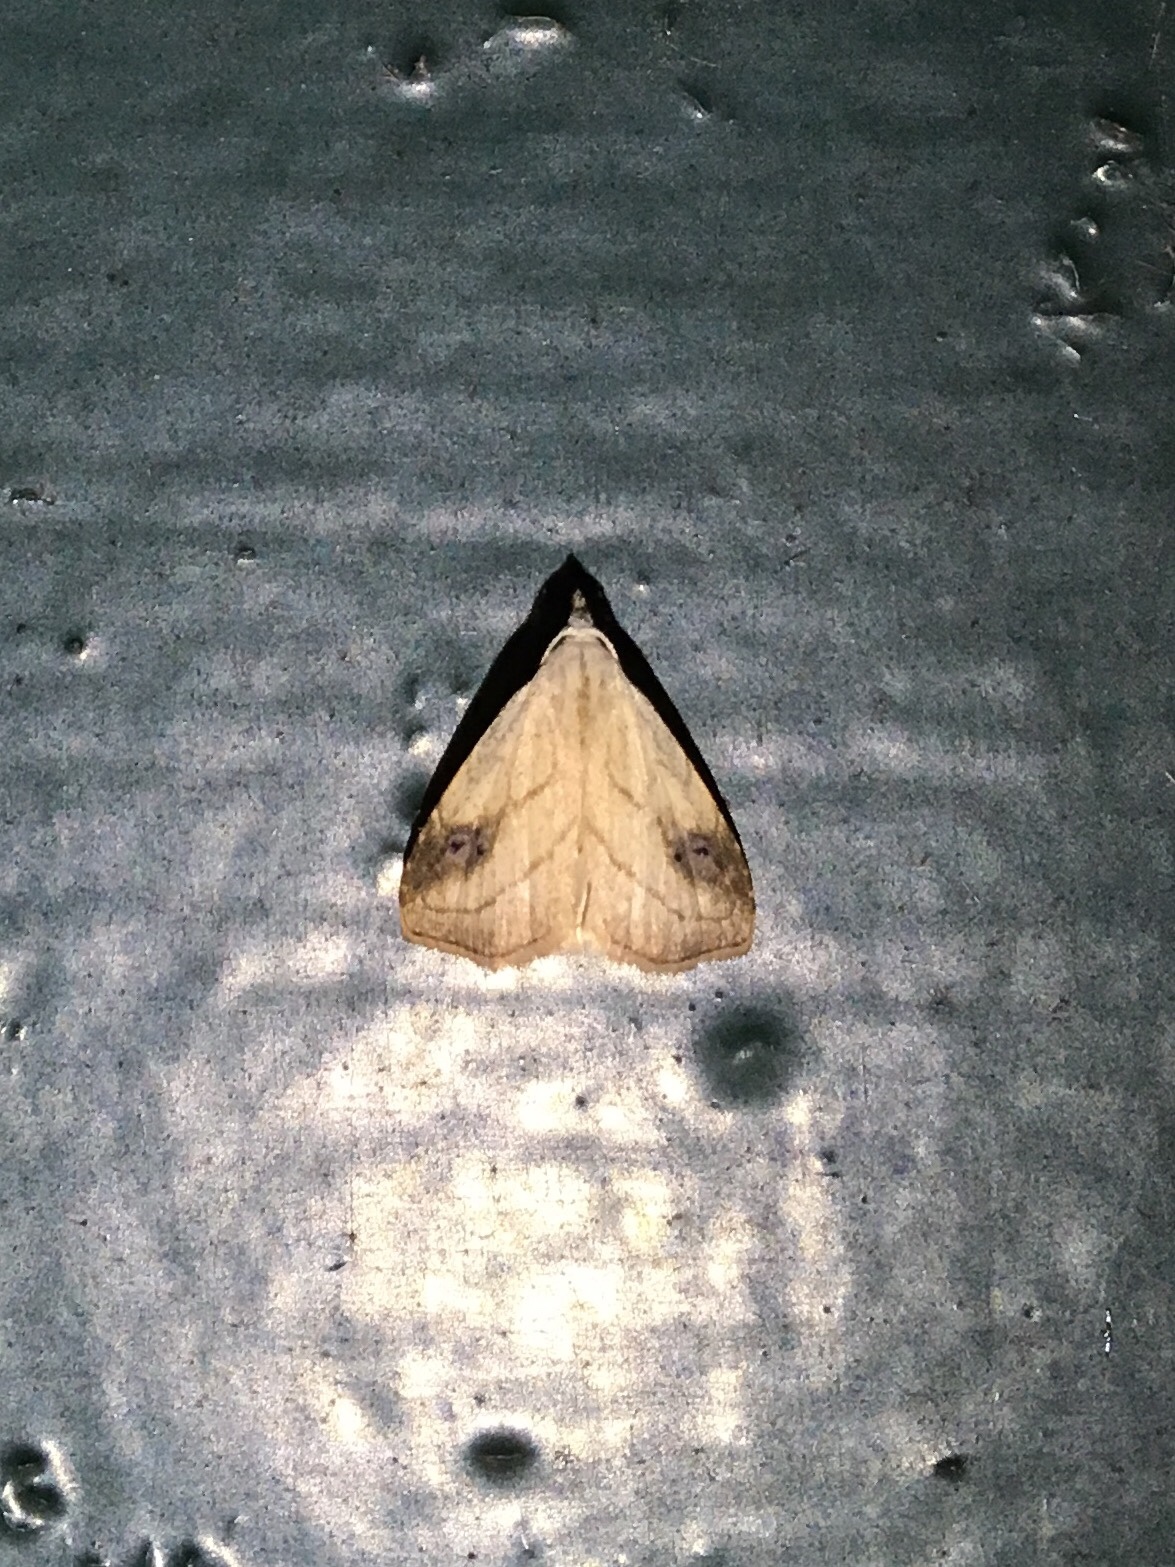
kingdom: Animalia
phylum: Arthropoda
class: Insecta
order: Lepidoptera
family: Erebidae
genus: Rivula
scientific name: Rivula propinqualis
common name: Spotted grass moth
